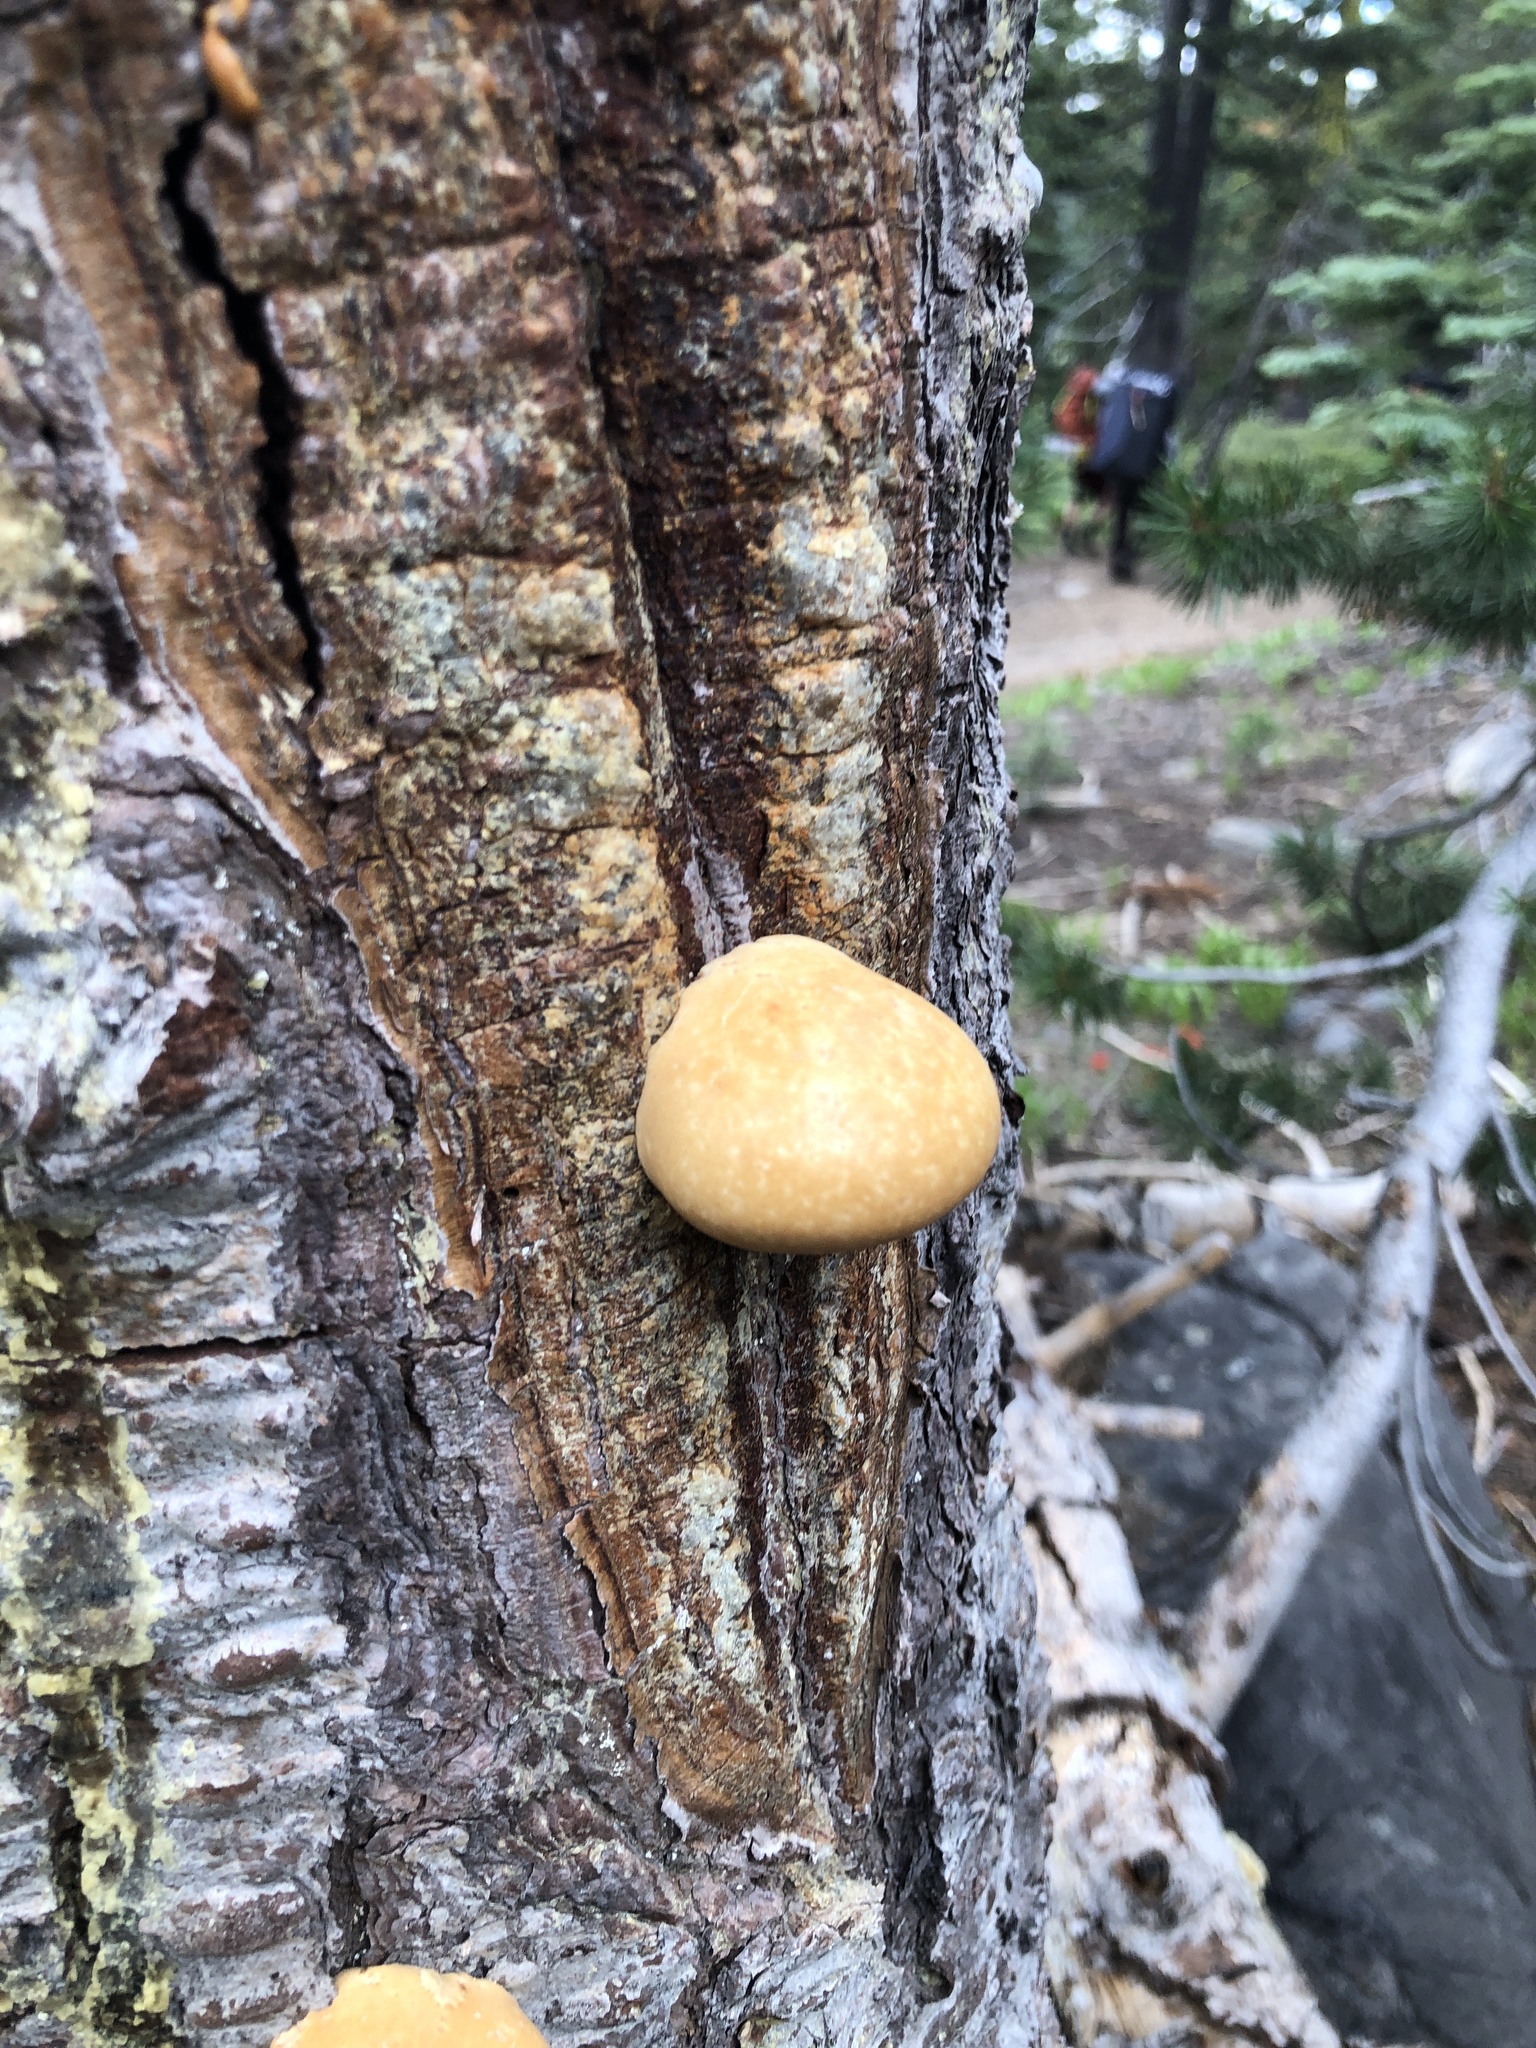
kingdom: Fungi
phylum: Basidiomycota
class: Agaricomycetes
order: Polyporales
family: Polyporaceae
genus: Cryptoporus
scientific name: Cryptoporus volvatus
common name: Veiled polypore
